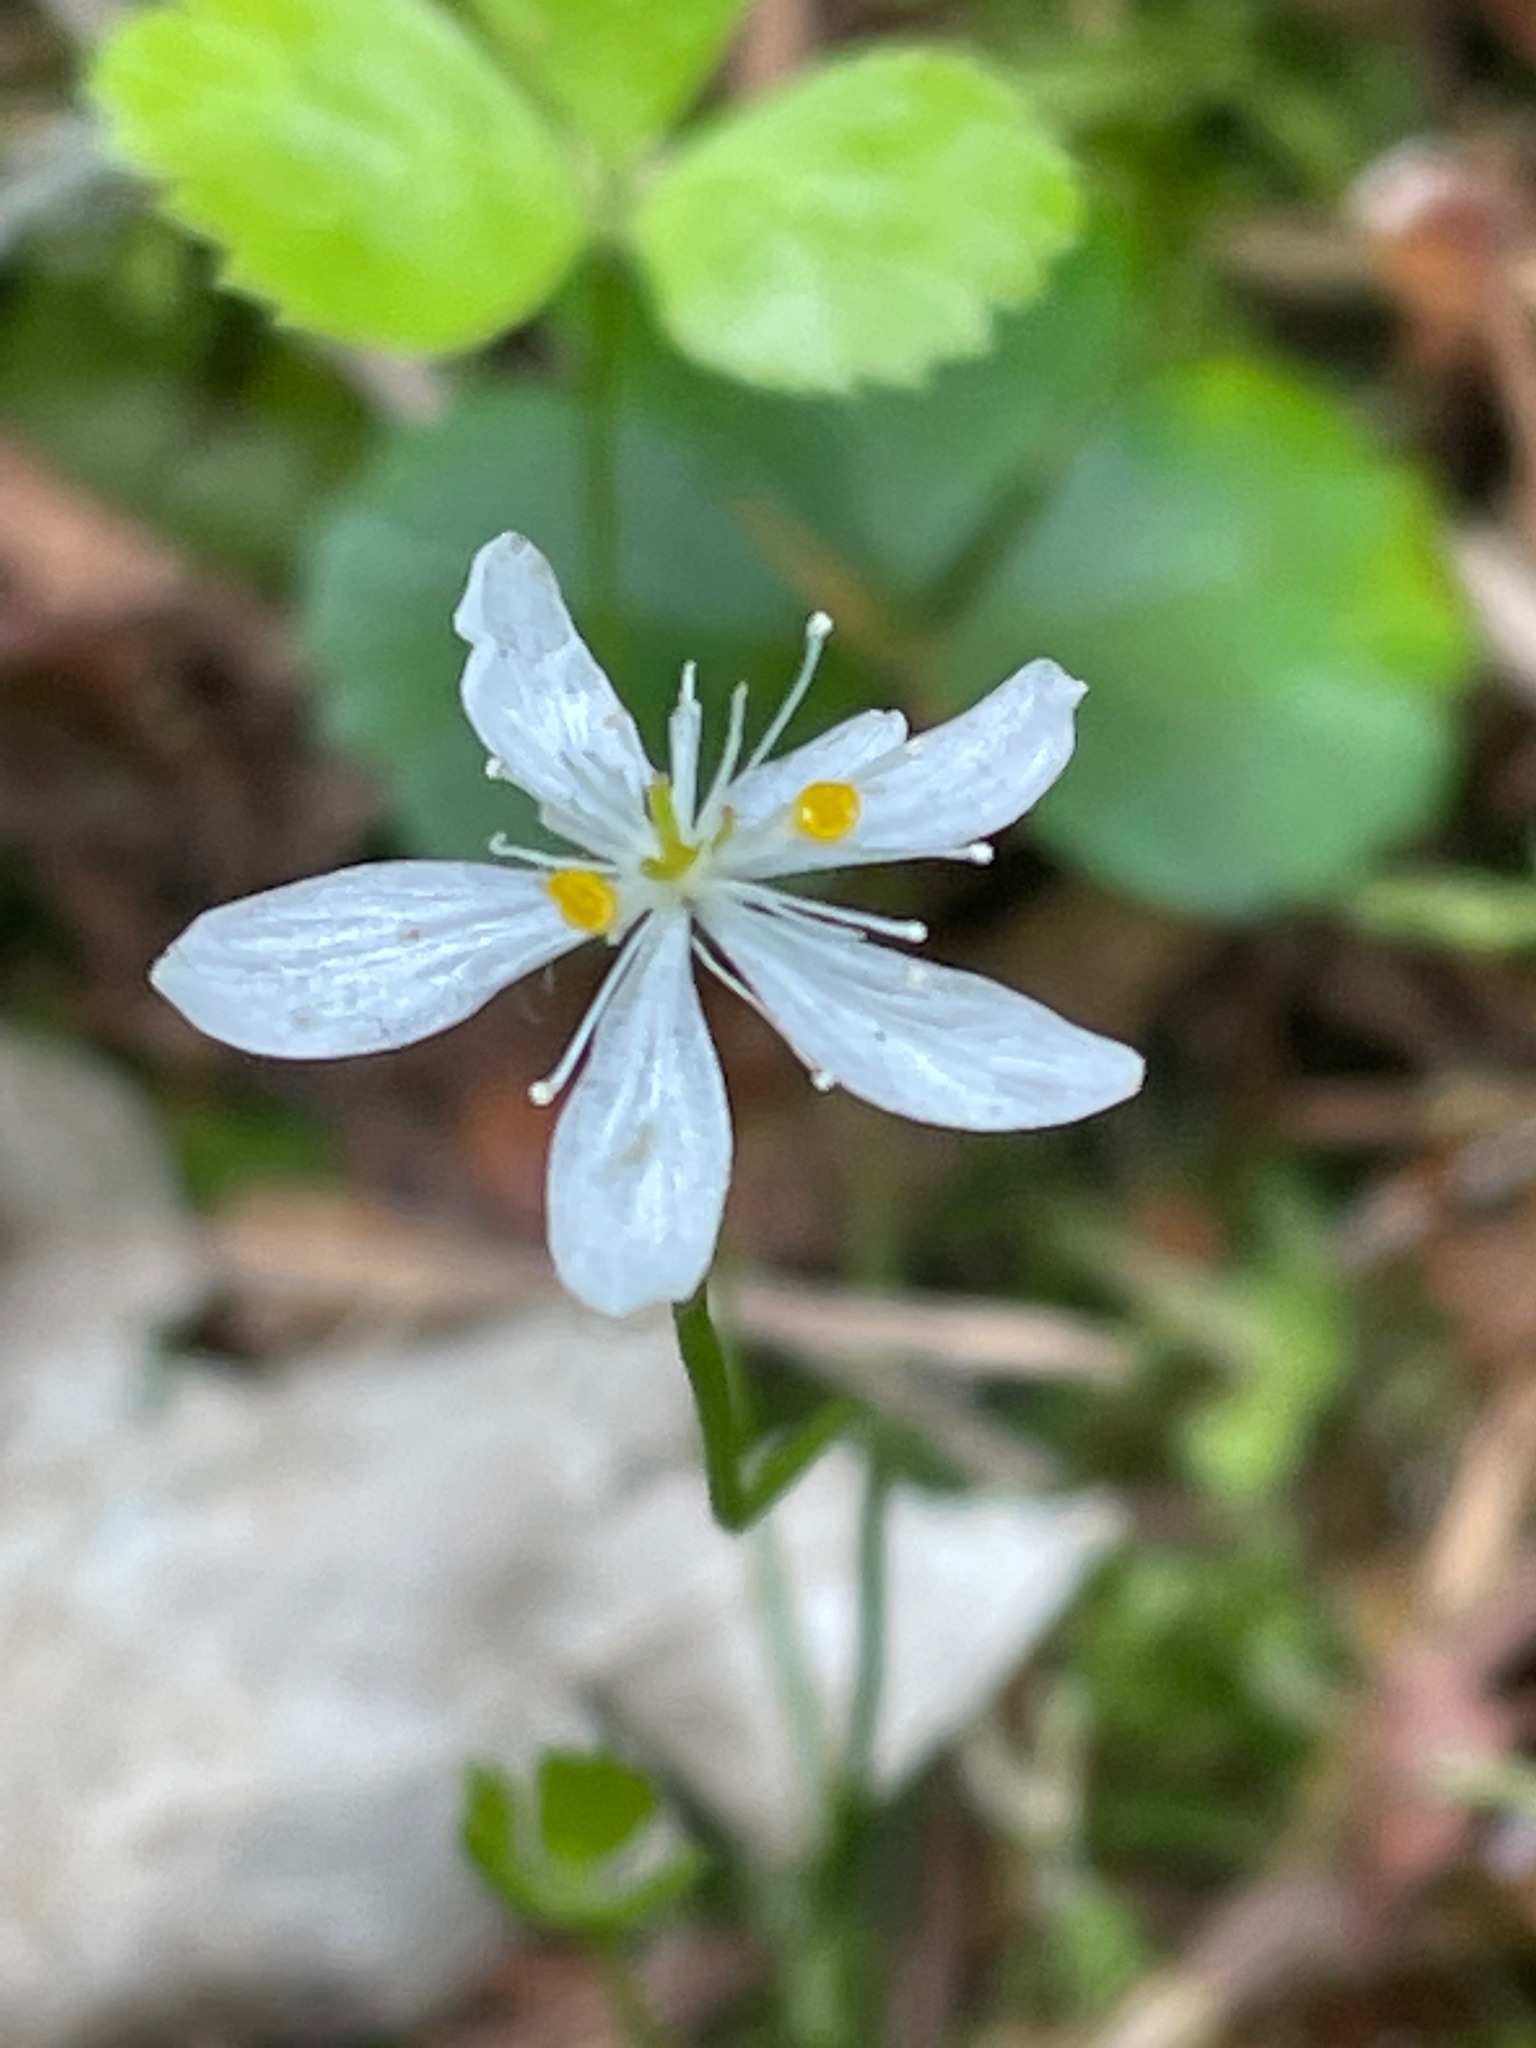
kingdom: Plantae
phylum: Tracheophyta
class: Magnoliopsida
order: Ranunculales
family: Ranunculaceae
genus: Coptis
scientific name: Coptis trifolia
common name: Canker-root
